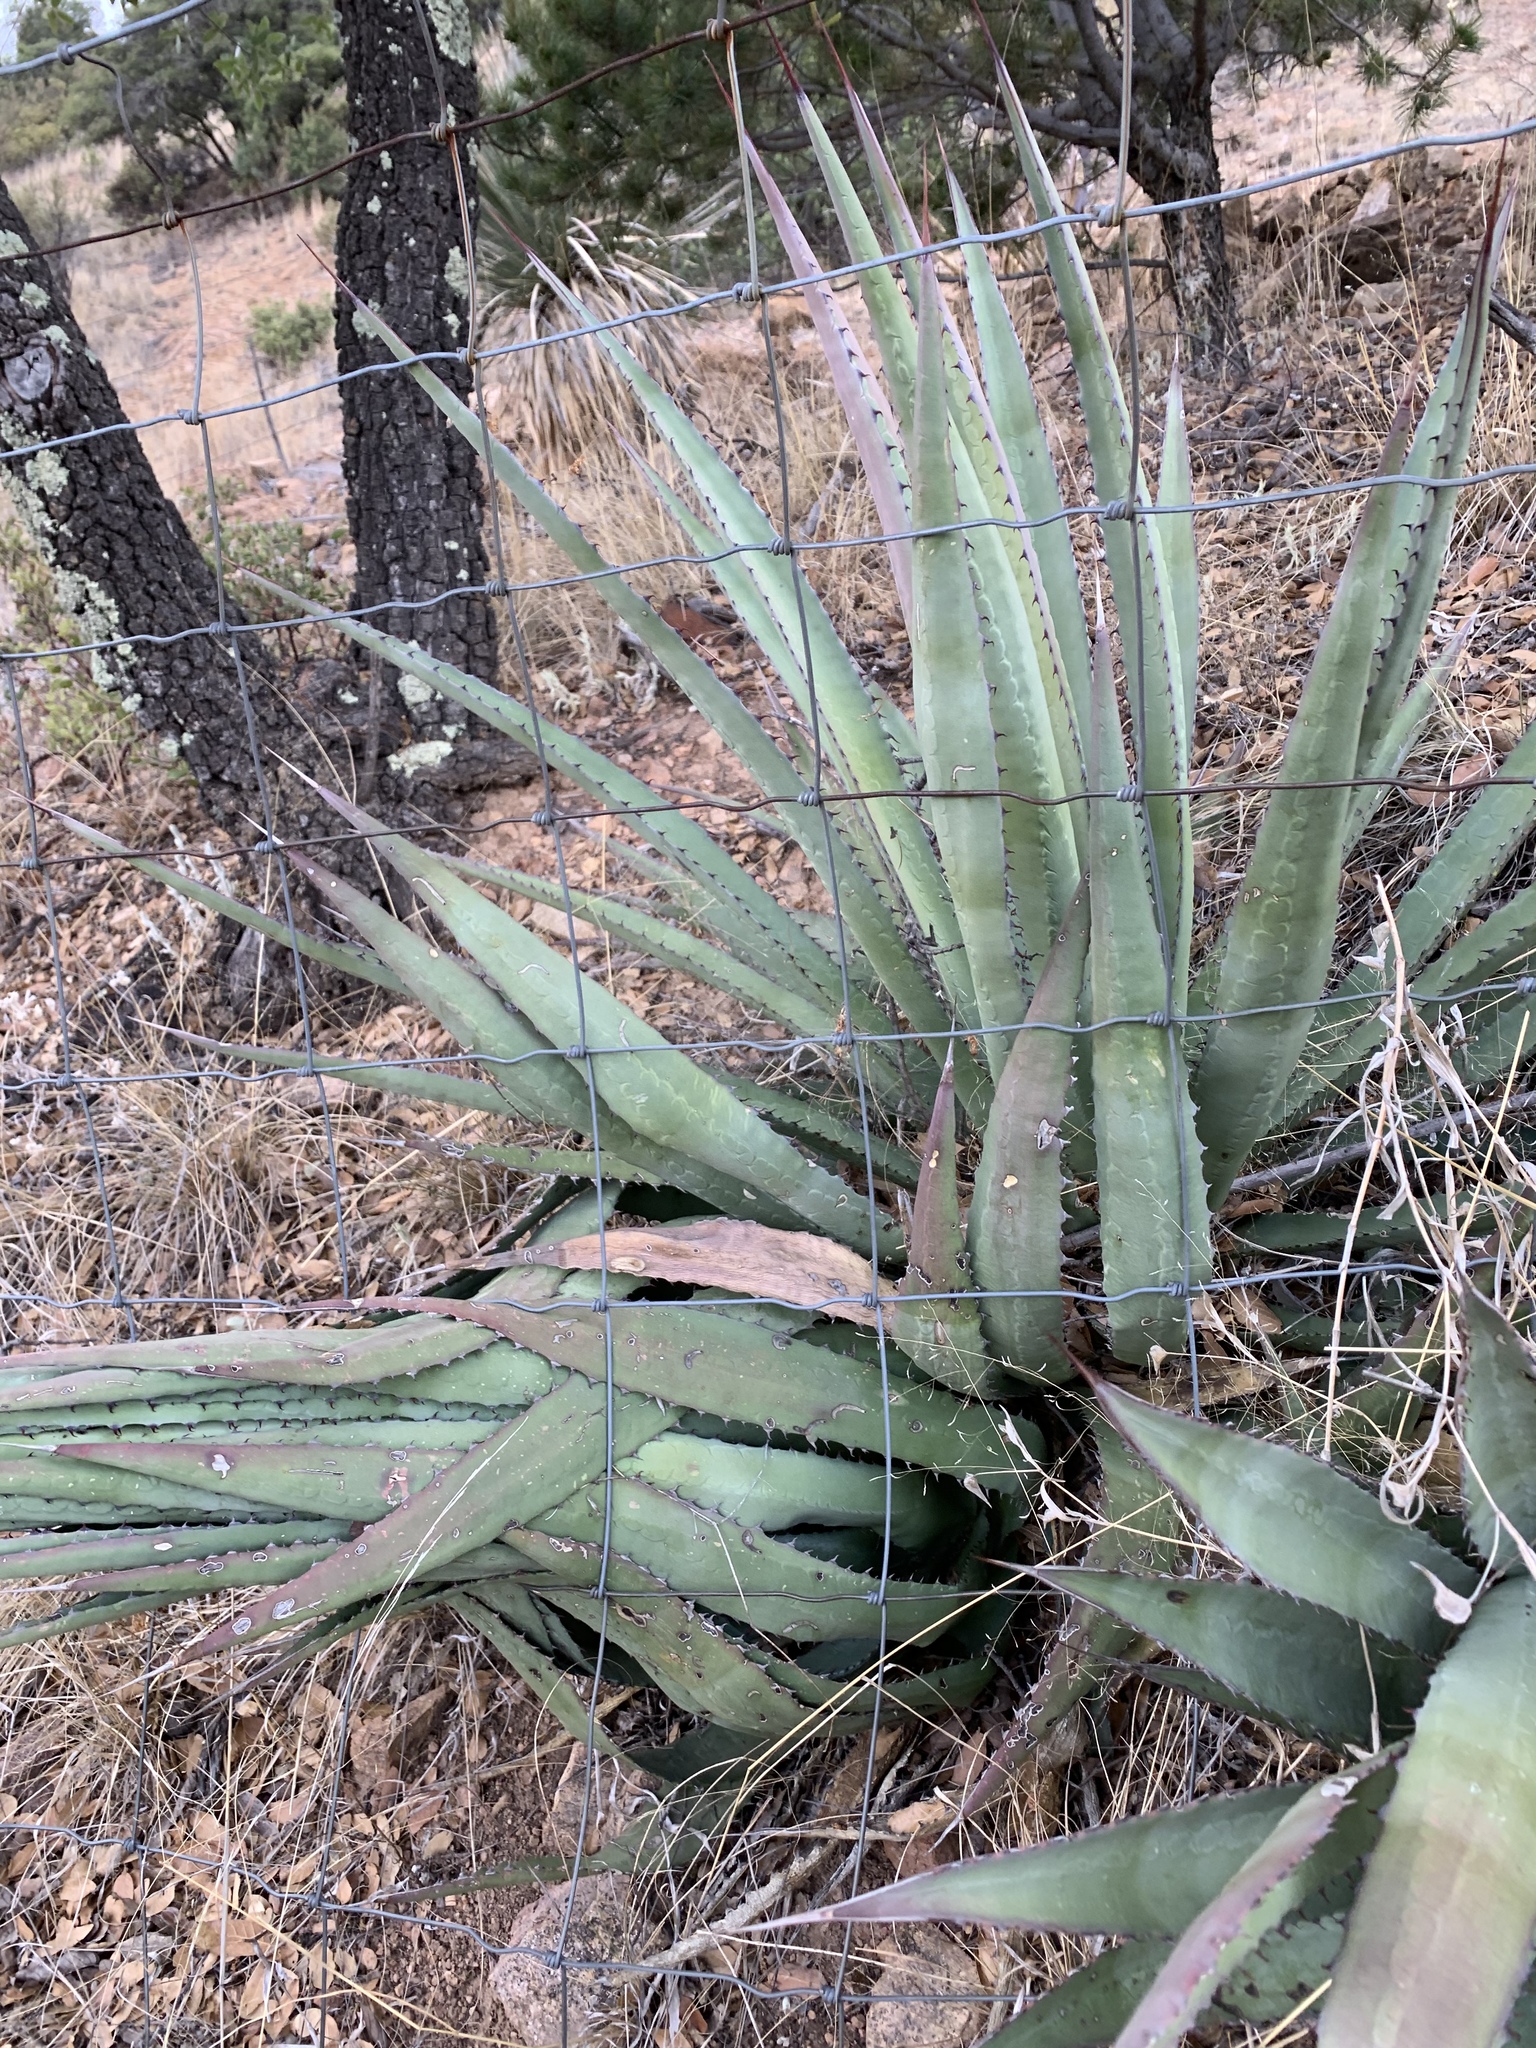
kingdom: Plantae
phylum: Tracheophyta
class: Liliopsida
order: Asparagales
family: Asparagaceae
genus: Agave
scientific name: Agave palmeri
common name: Palmer agave
